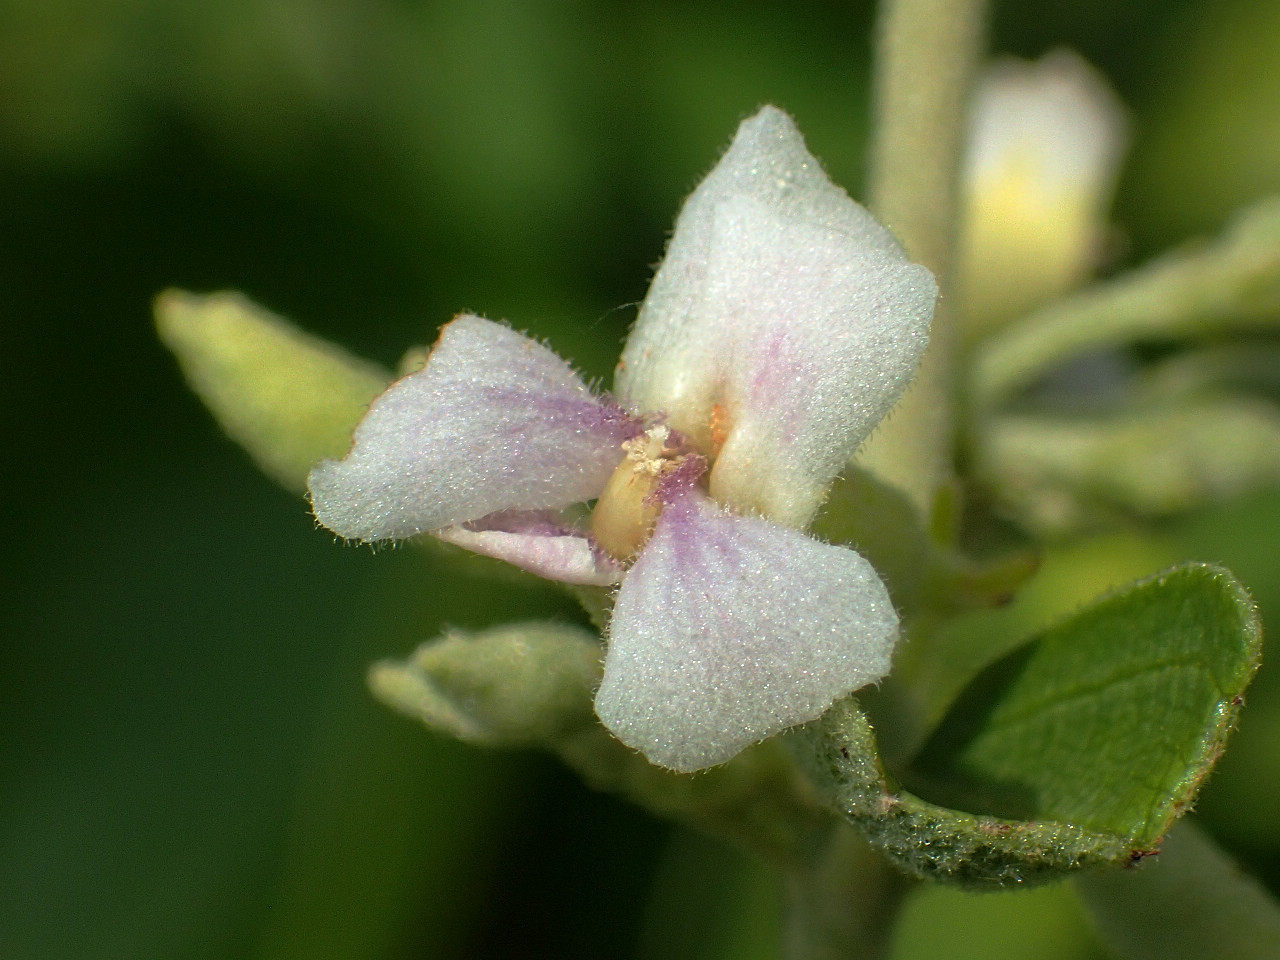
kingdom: Plantae
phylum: Tracheophyta
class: Magnoliopsida
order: Malvales
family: Malvaceae
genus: Helicteres
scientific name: Helicteres angustifolia
